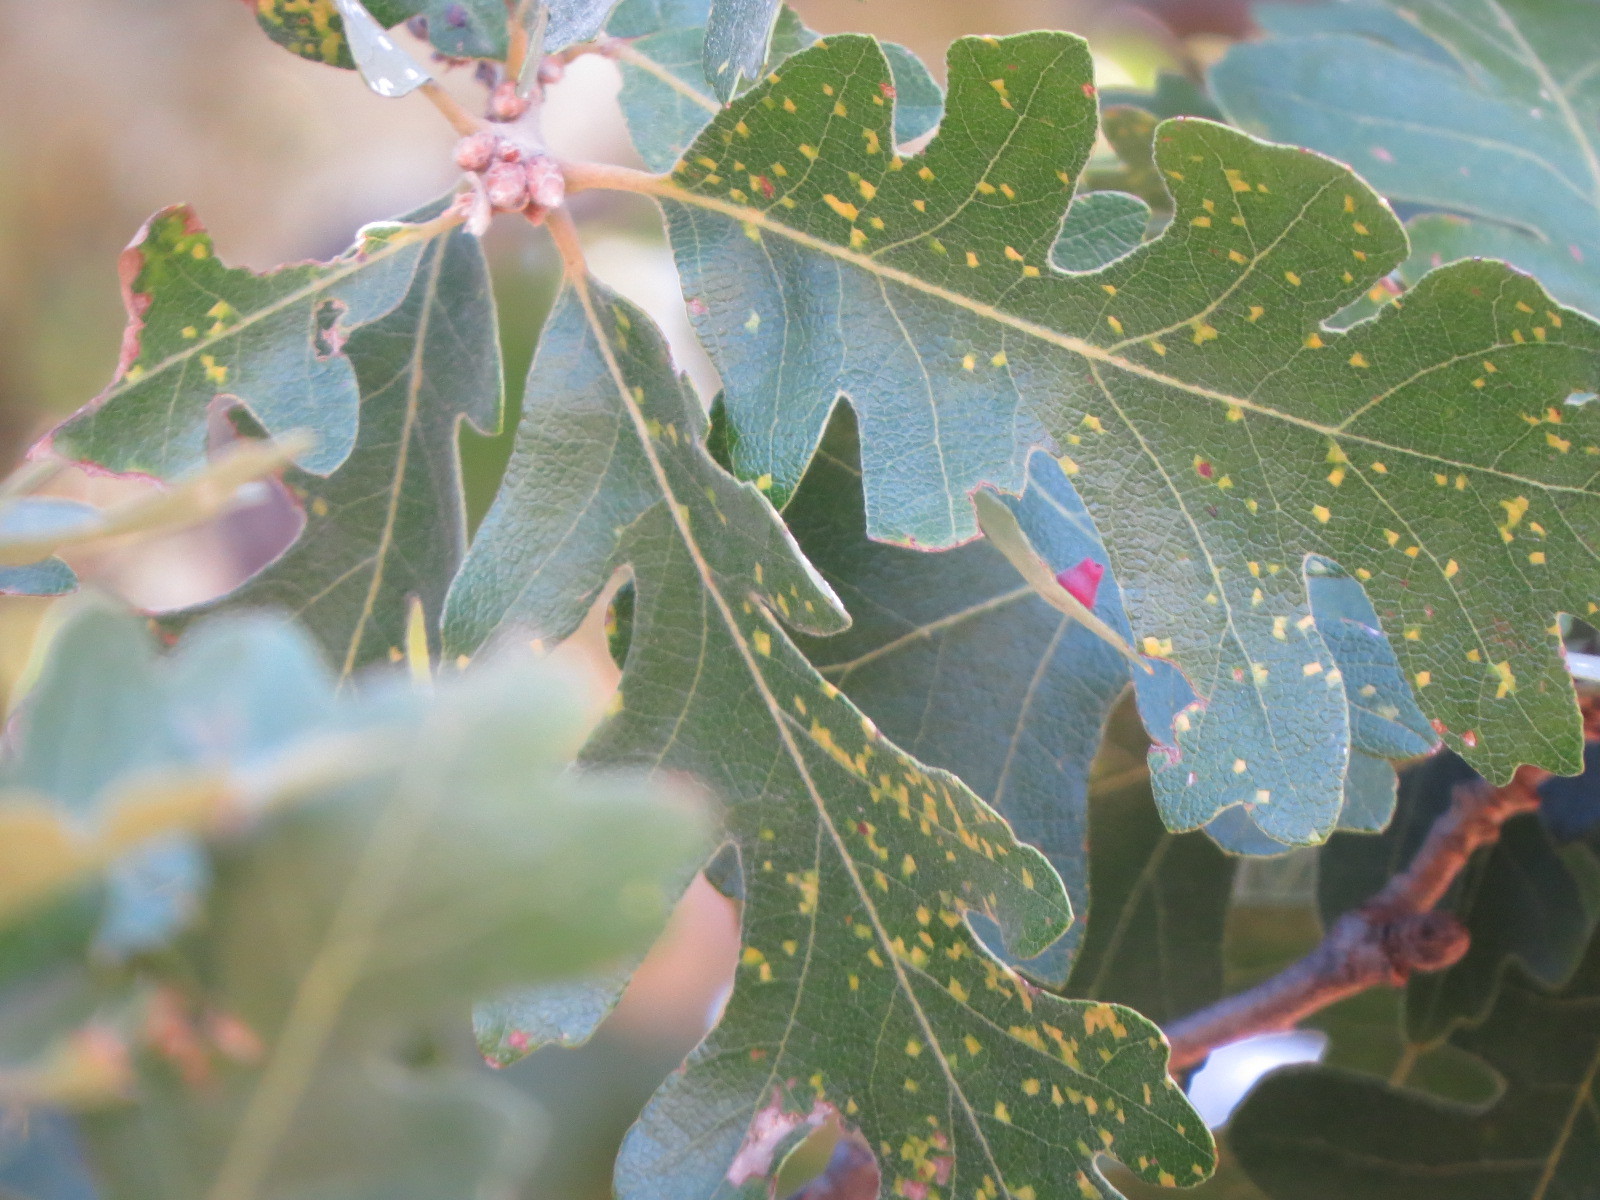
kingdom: Animalia
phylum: Arthropoda
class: Insecta
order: Hymenoptera
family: Cynipidae
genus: Andricus
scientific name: Andricus
